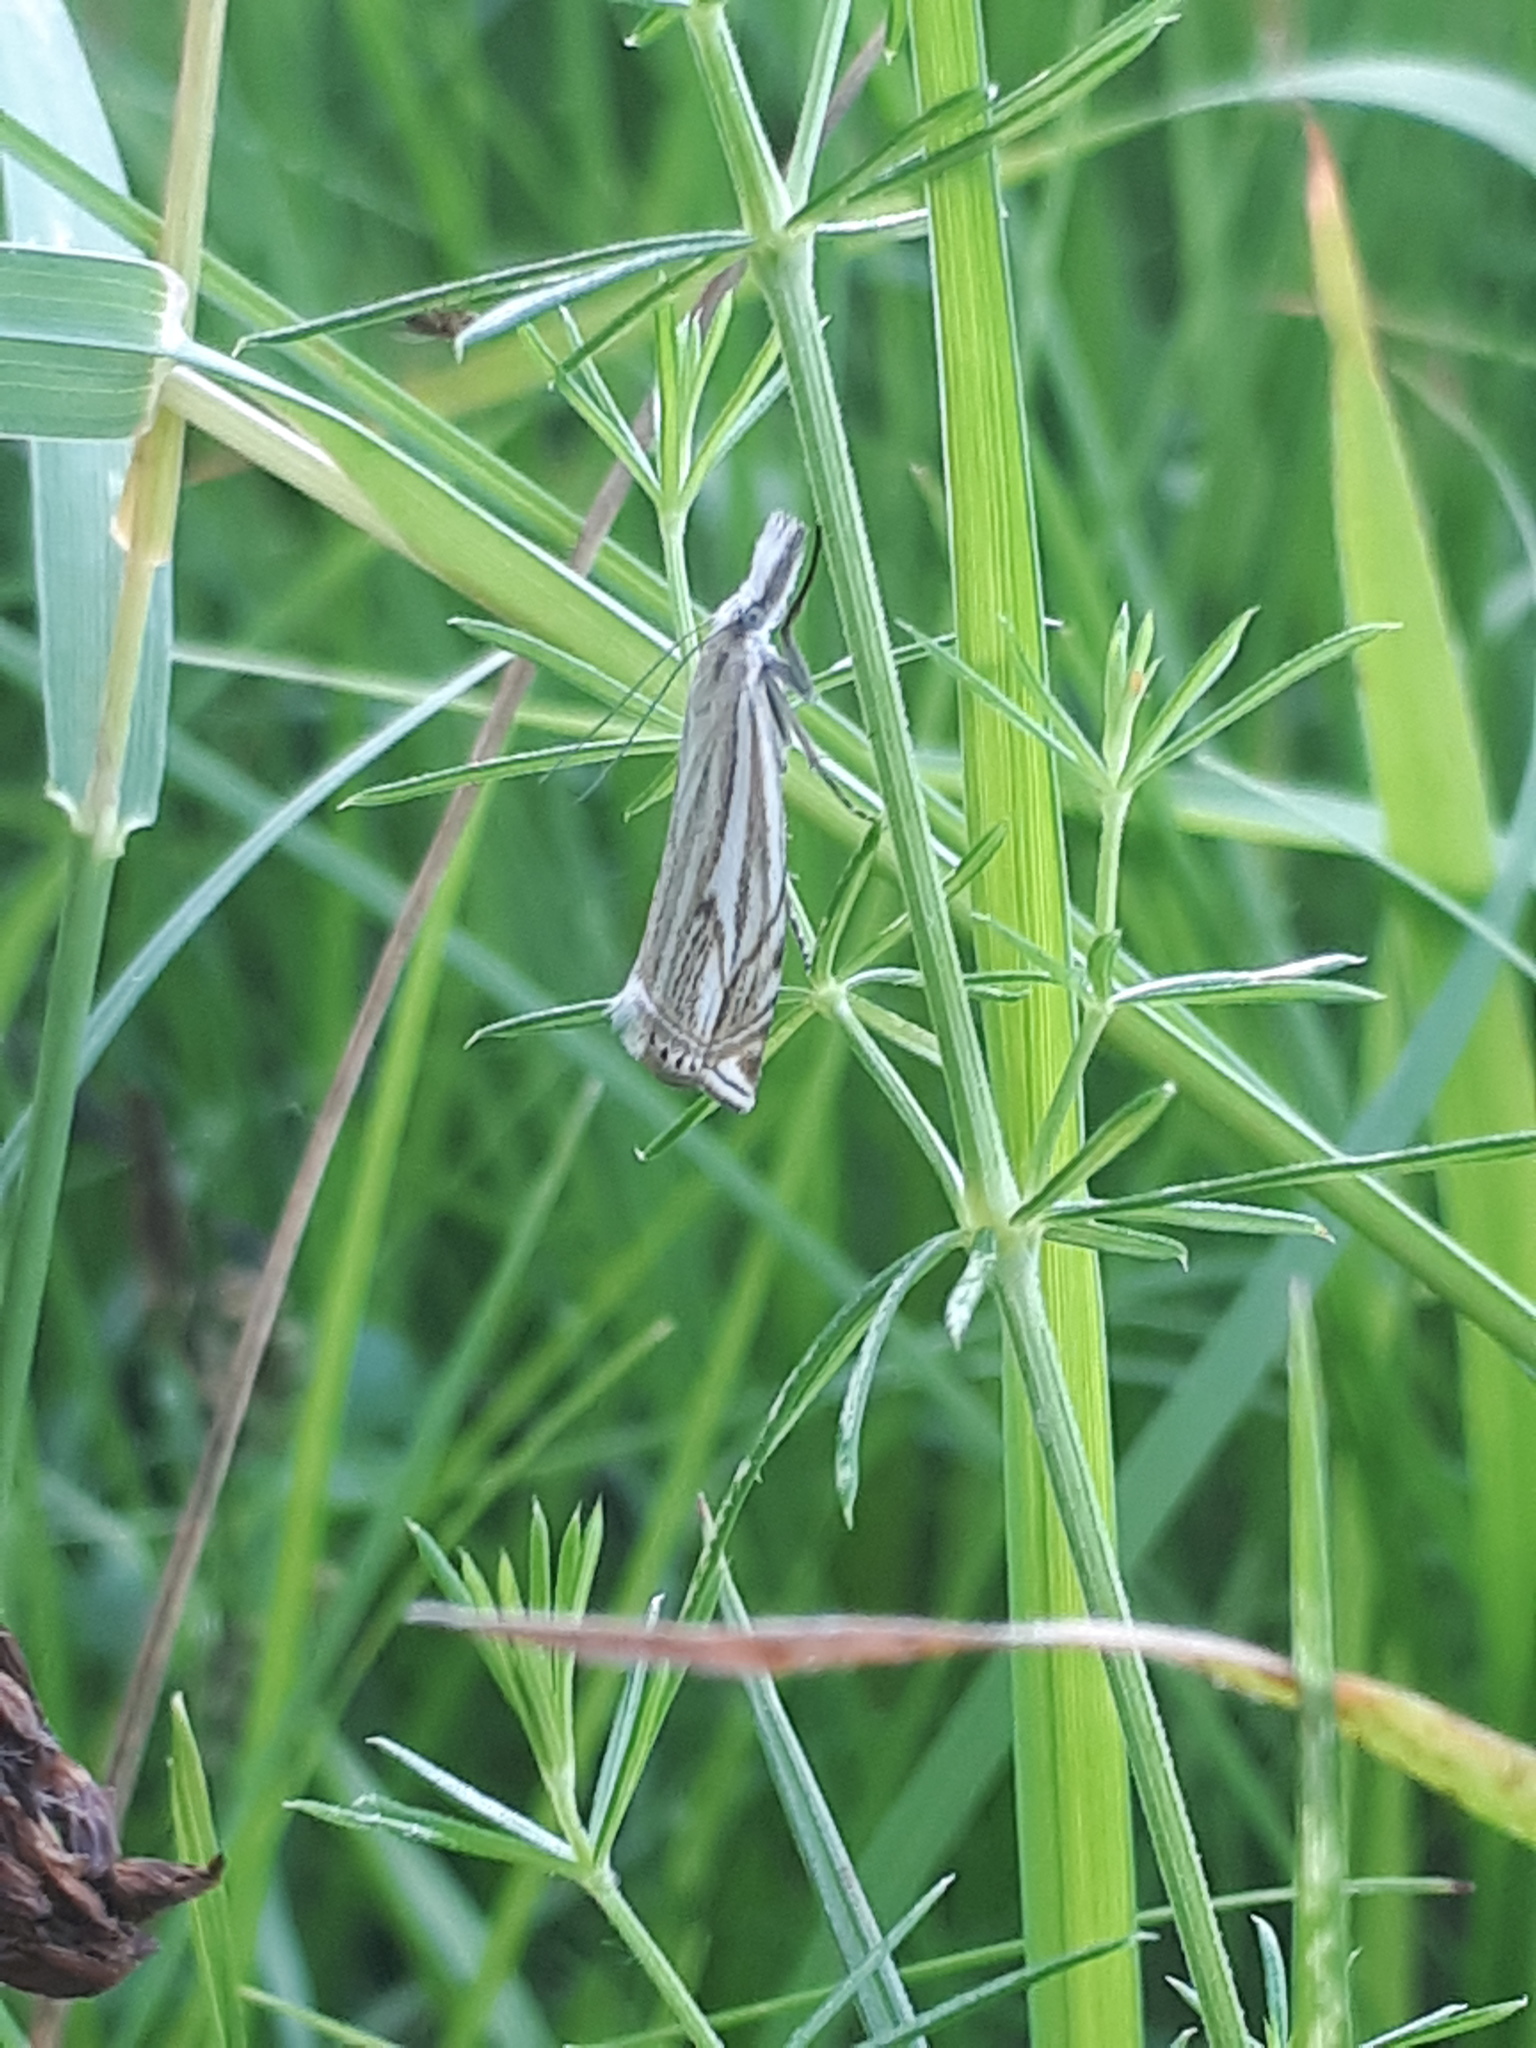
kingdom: Animalia
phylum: Arthropoda
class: Insecta
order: Lepidoptera
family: Crambidae
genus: Crambus
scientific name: Crambus nemorella
